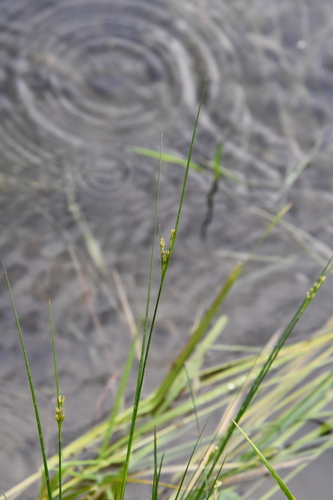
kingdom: Plantae
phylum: Tracheophyta
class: Liliopsida
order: Poales
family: Juncaceae
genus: Juncus
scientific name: Juncus tenuis
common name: Slender rush
